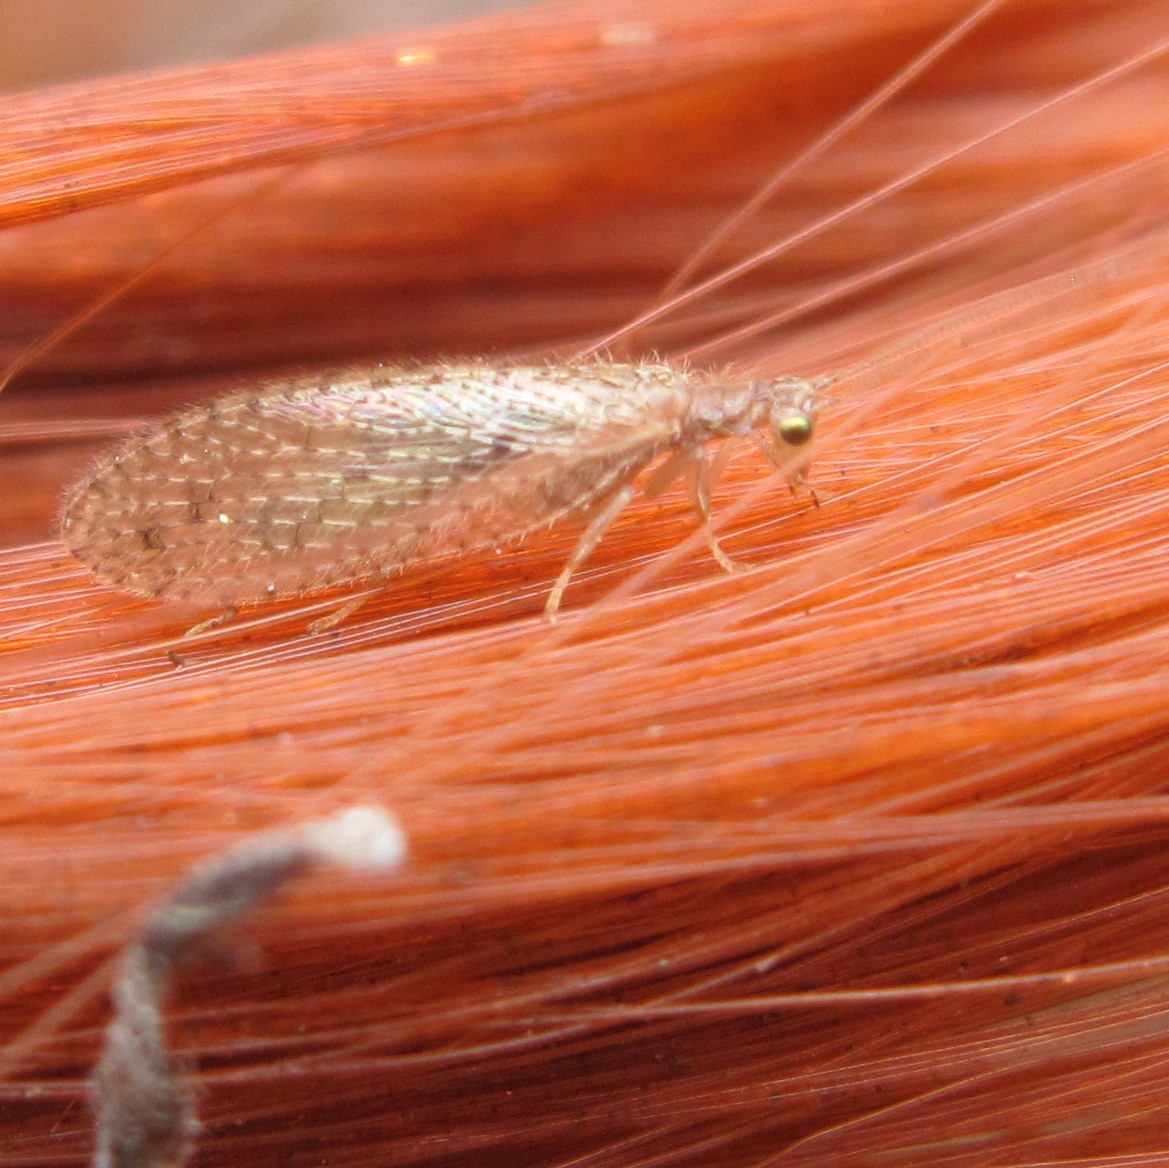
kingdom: Animalia
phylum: Arthropoda
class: Insecta
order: Neuroptera
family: Hemerobiidae
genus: Micromus
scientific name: Micromus tasmaniae
